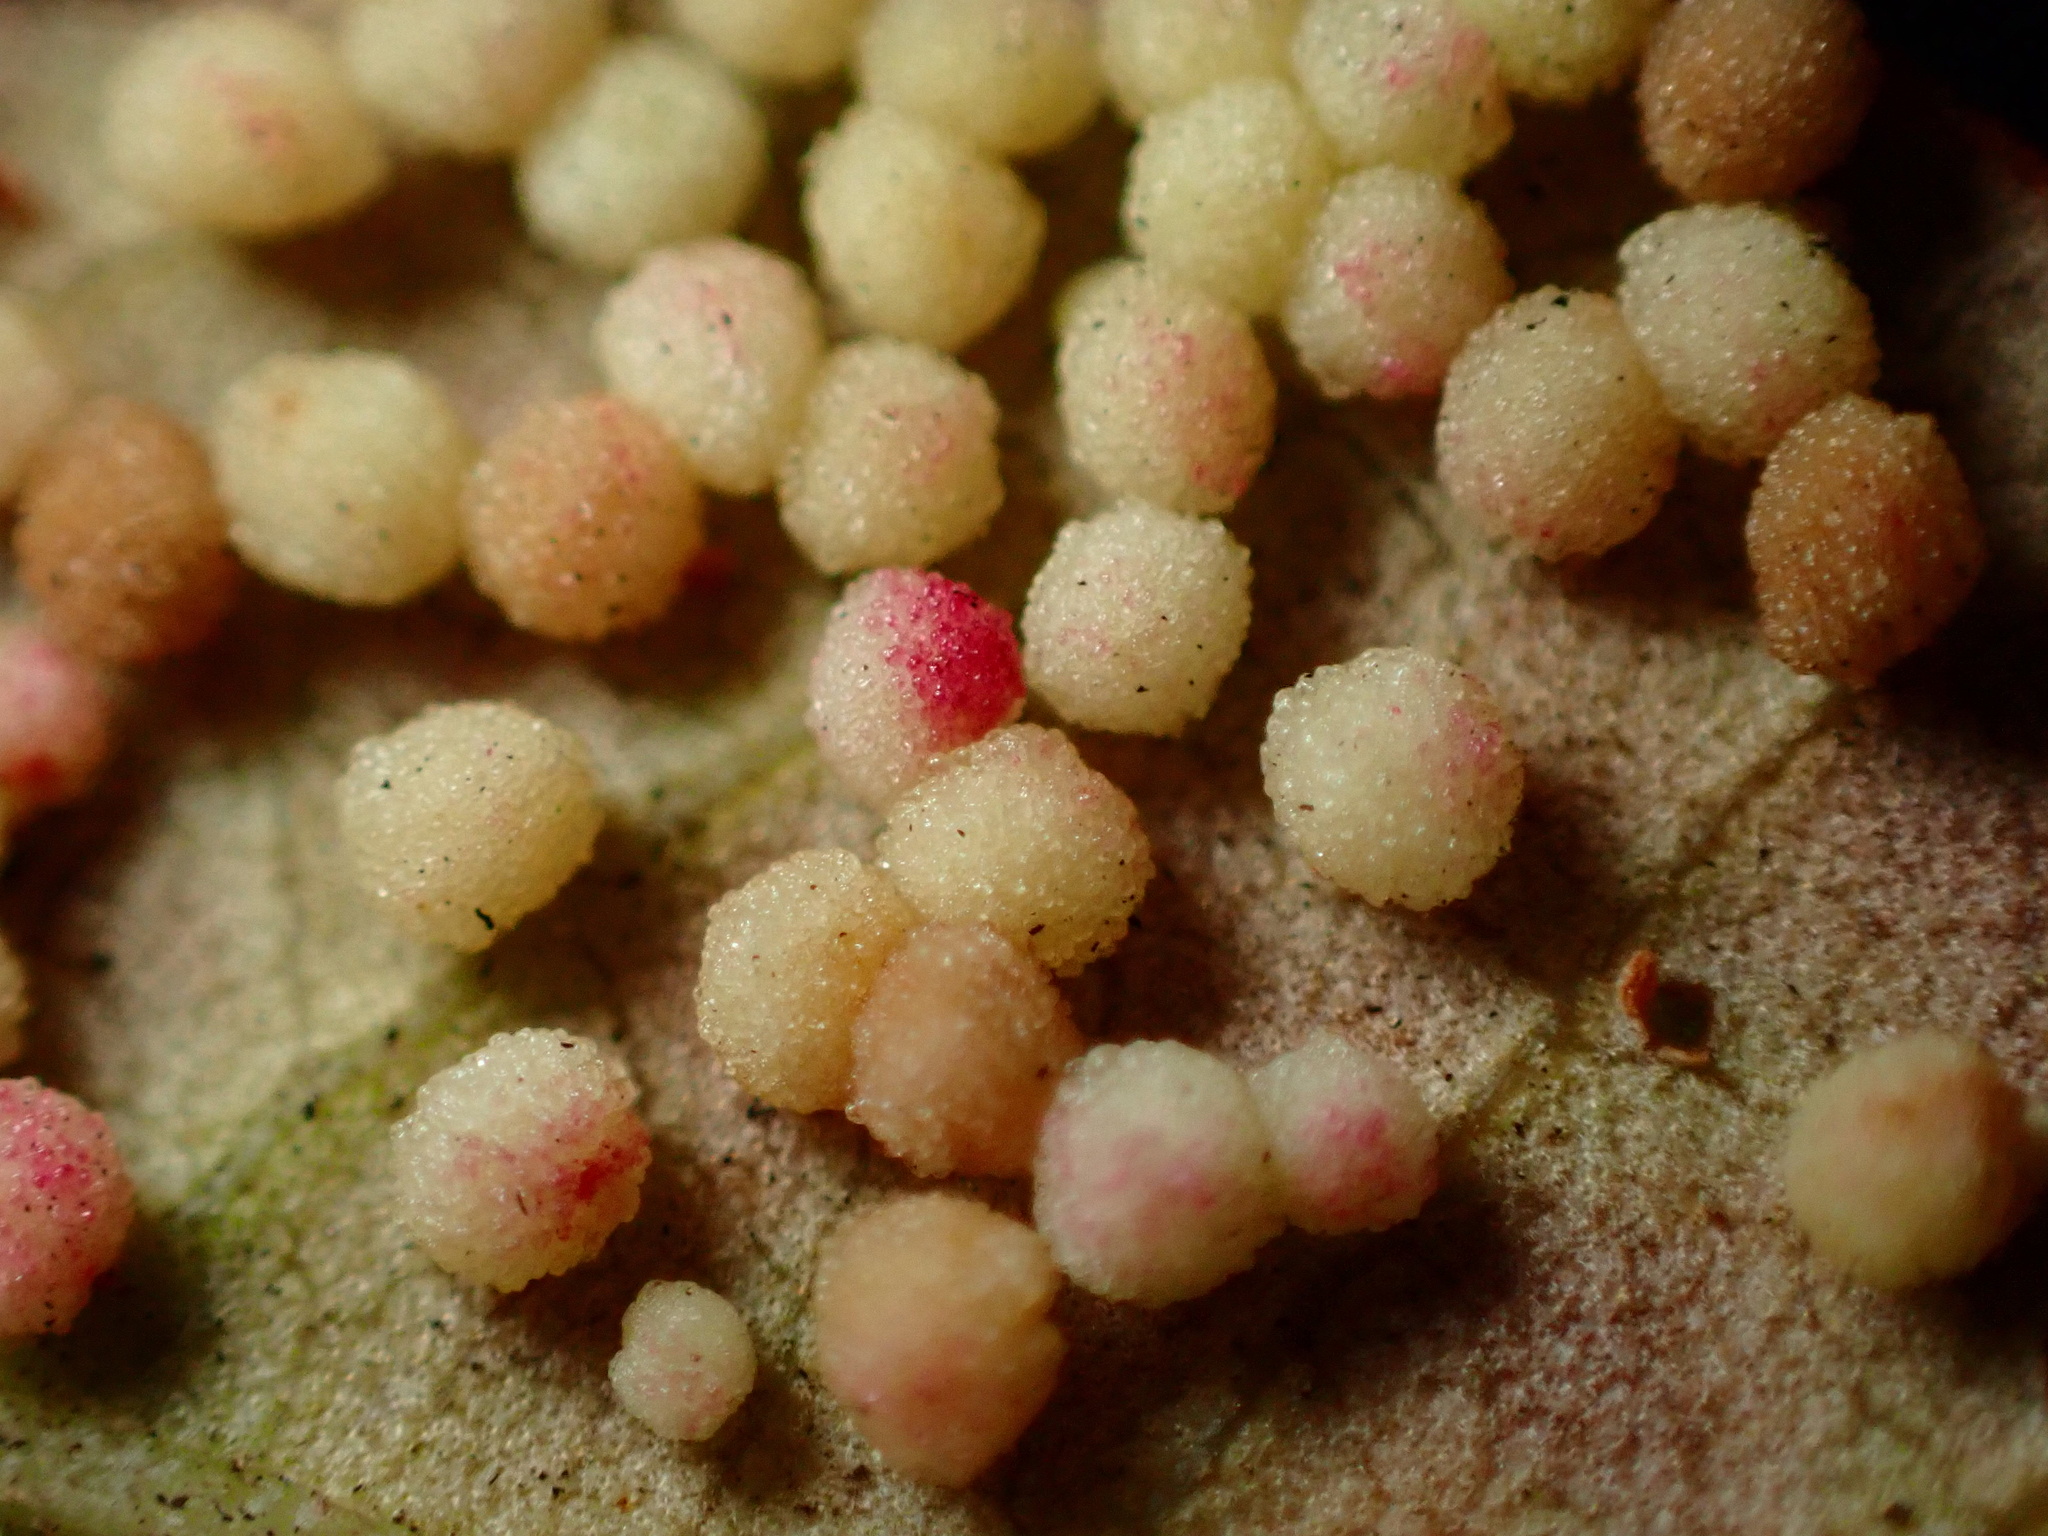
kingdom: Animalia
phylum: Arthropoda
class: Insecta
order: Hymenoptera
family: Cynipidae
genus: Neuroterus
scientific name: Neuroterus saltarius
